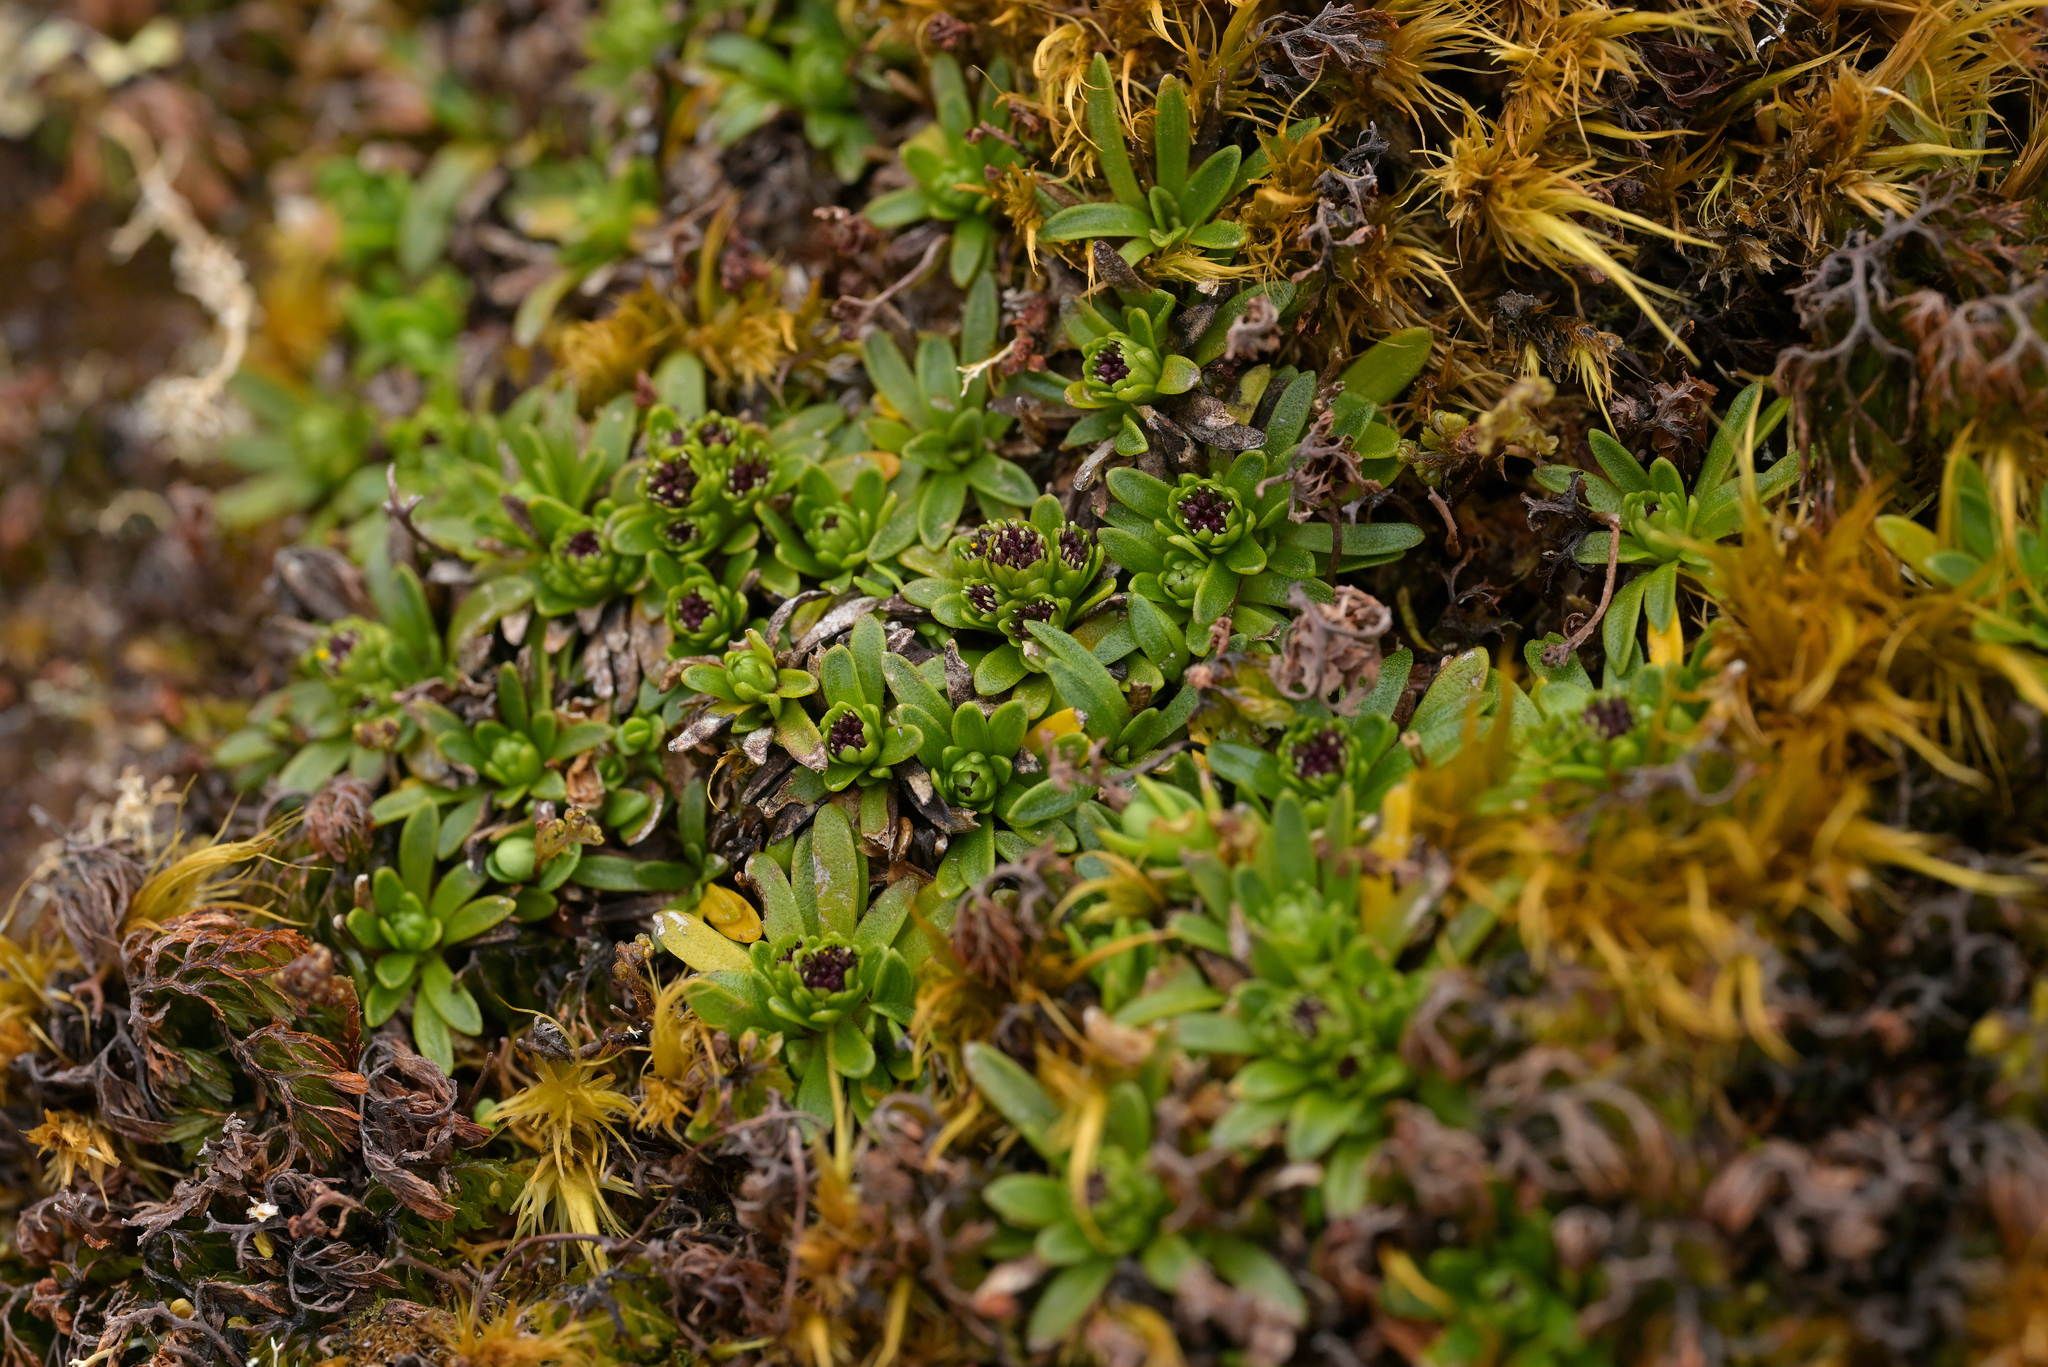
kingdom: Plantae
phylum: Tracheophyta
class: Magnoliopsida
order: Asterales
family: Asteraceae
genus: Abrotanella
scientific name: Abrotanella spathulata
